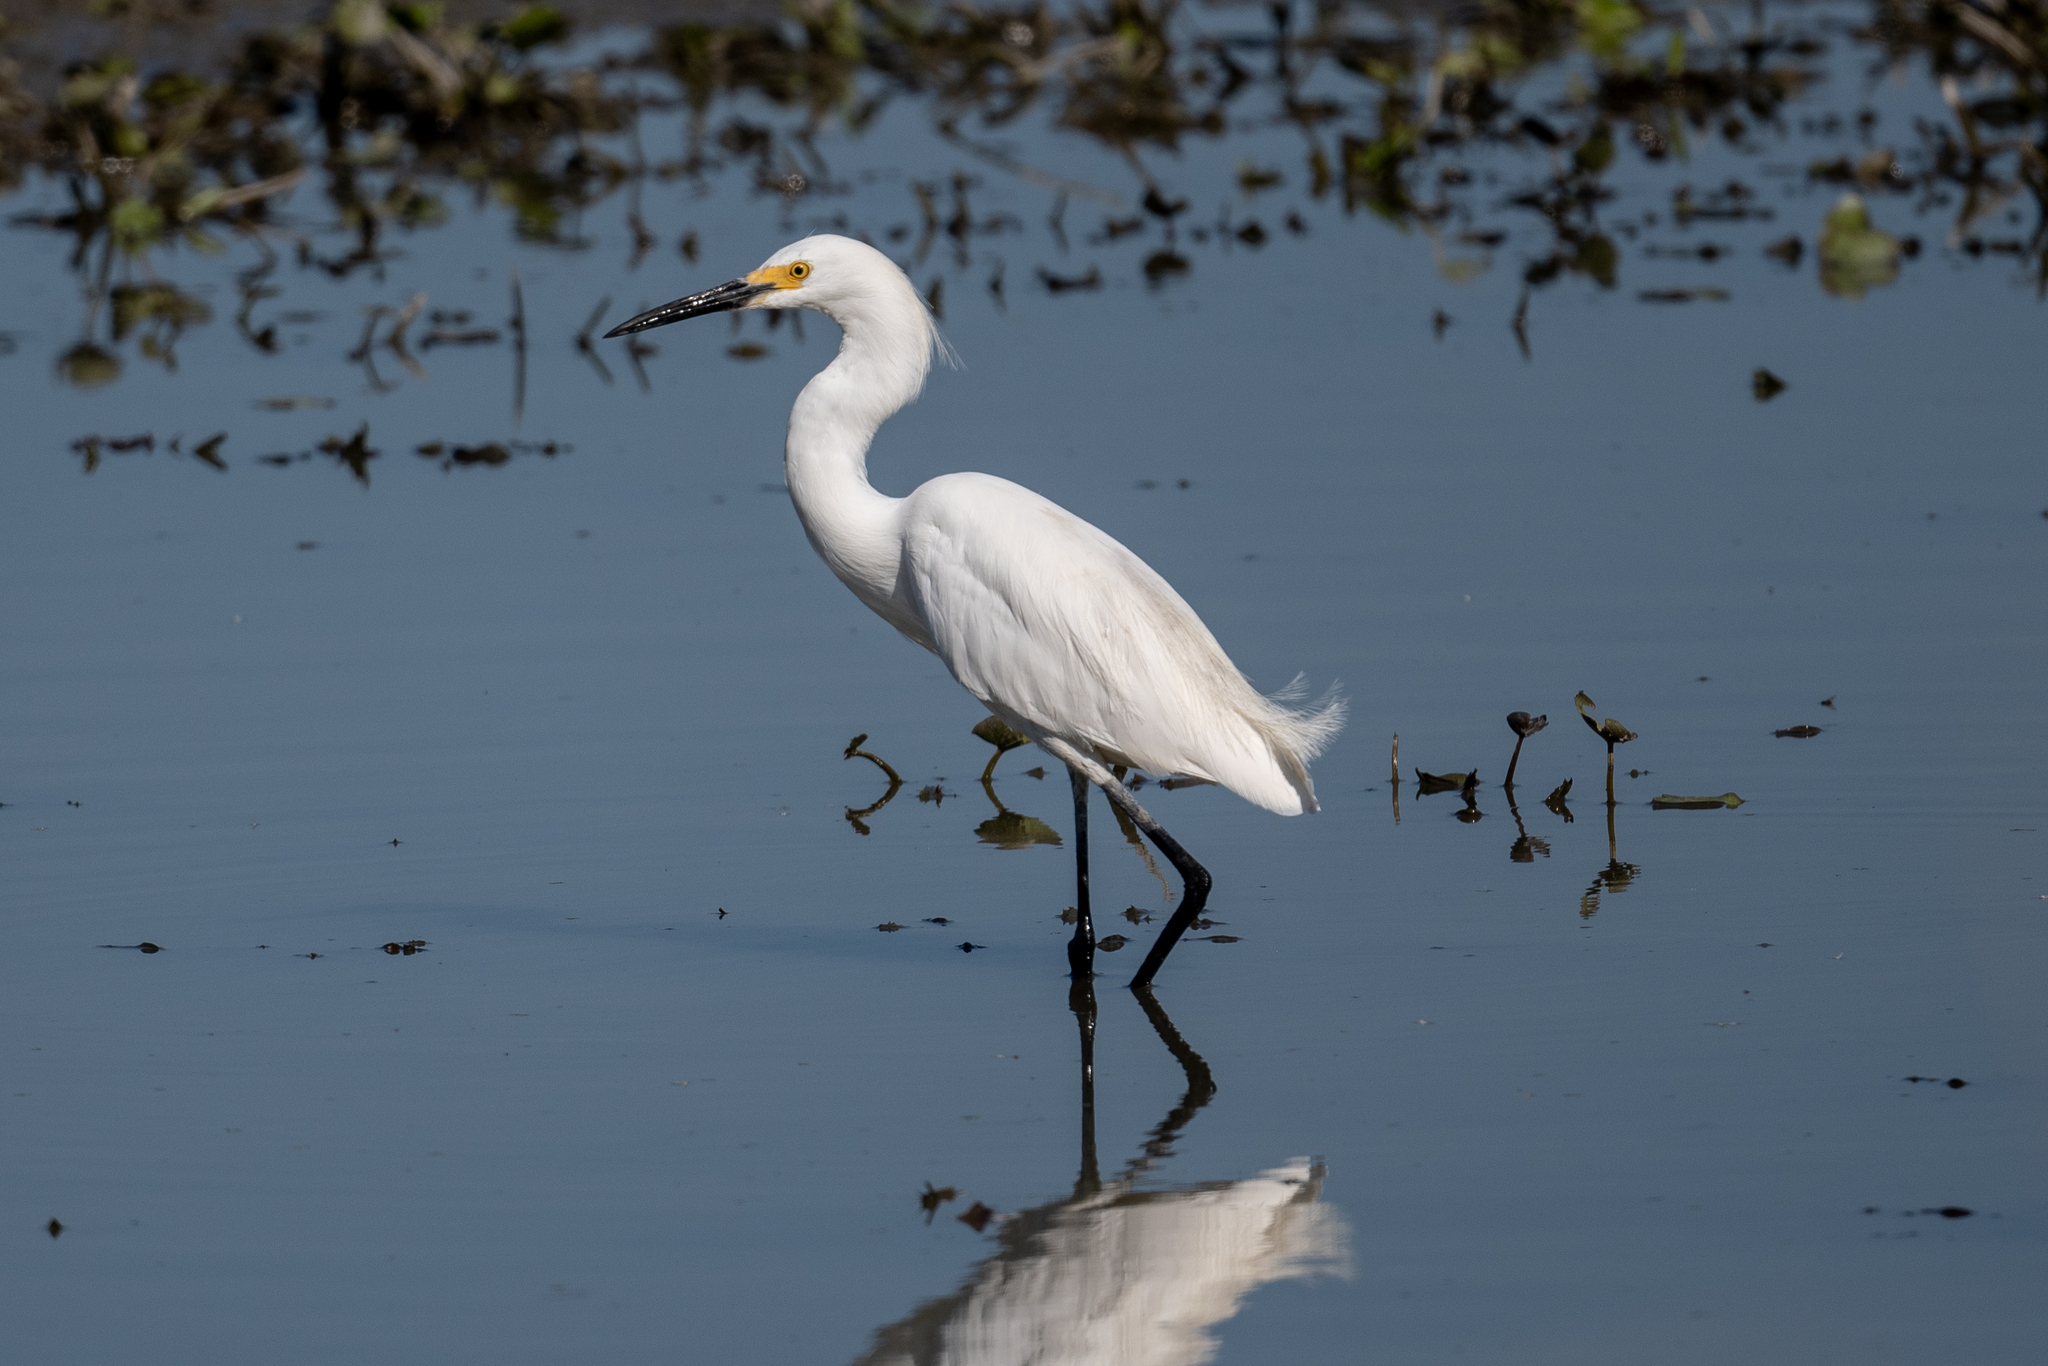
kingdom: Animalia
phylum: Chordata
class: Aves
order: Pelecaniformes
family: Ardeidae
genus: Egretta
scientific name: Egretta thula
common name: Snowy egret
